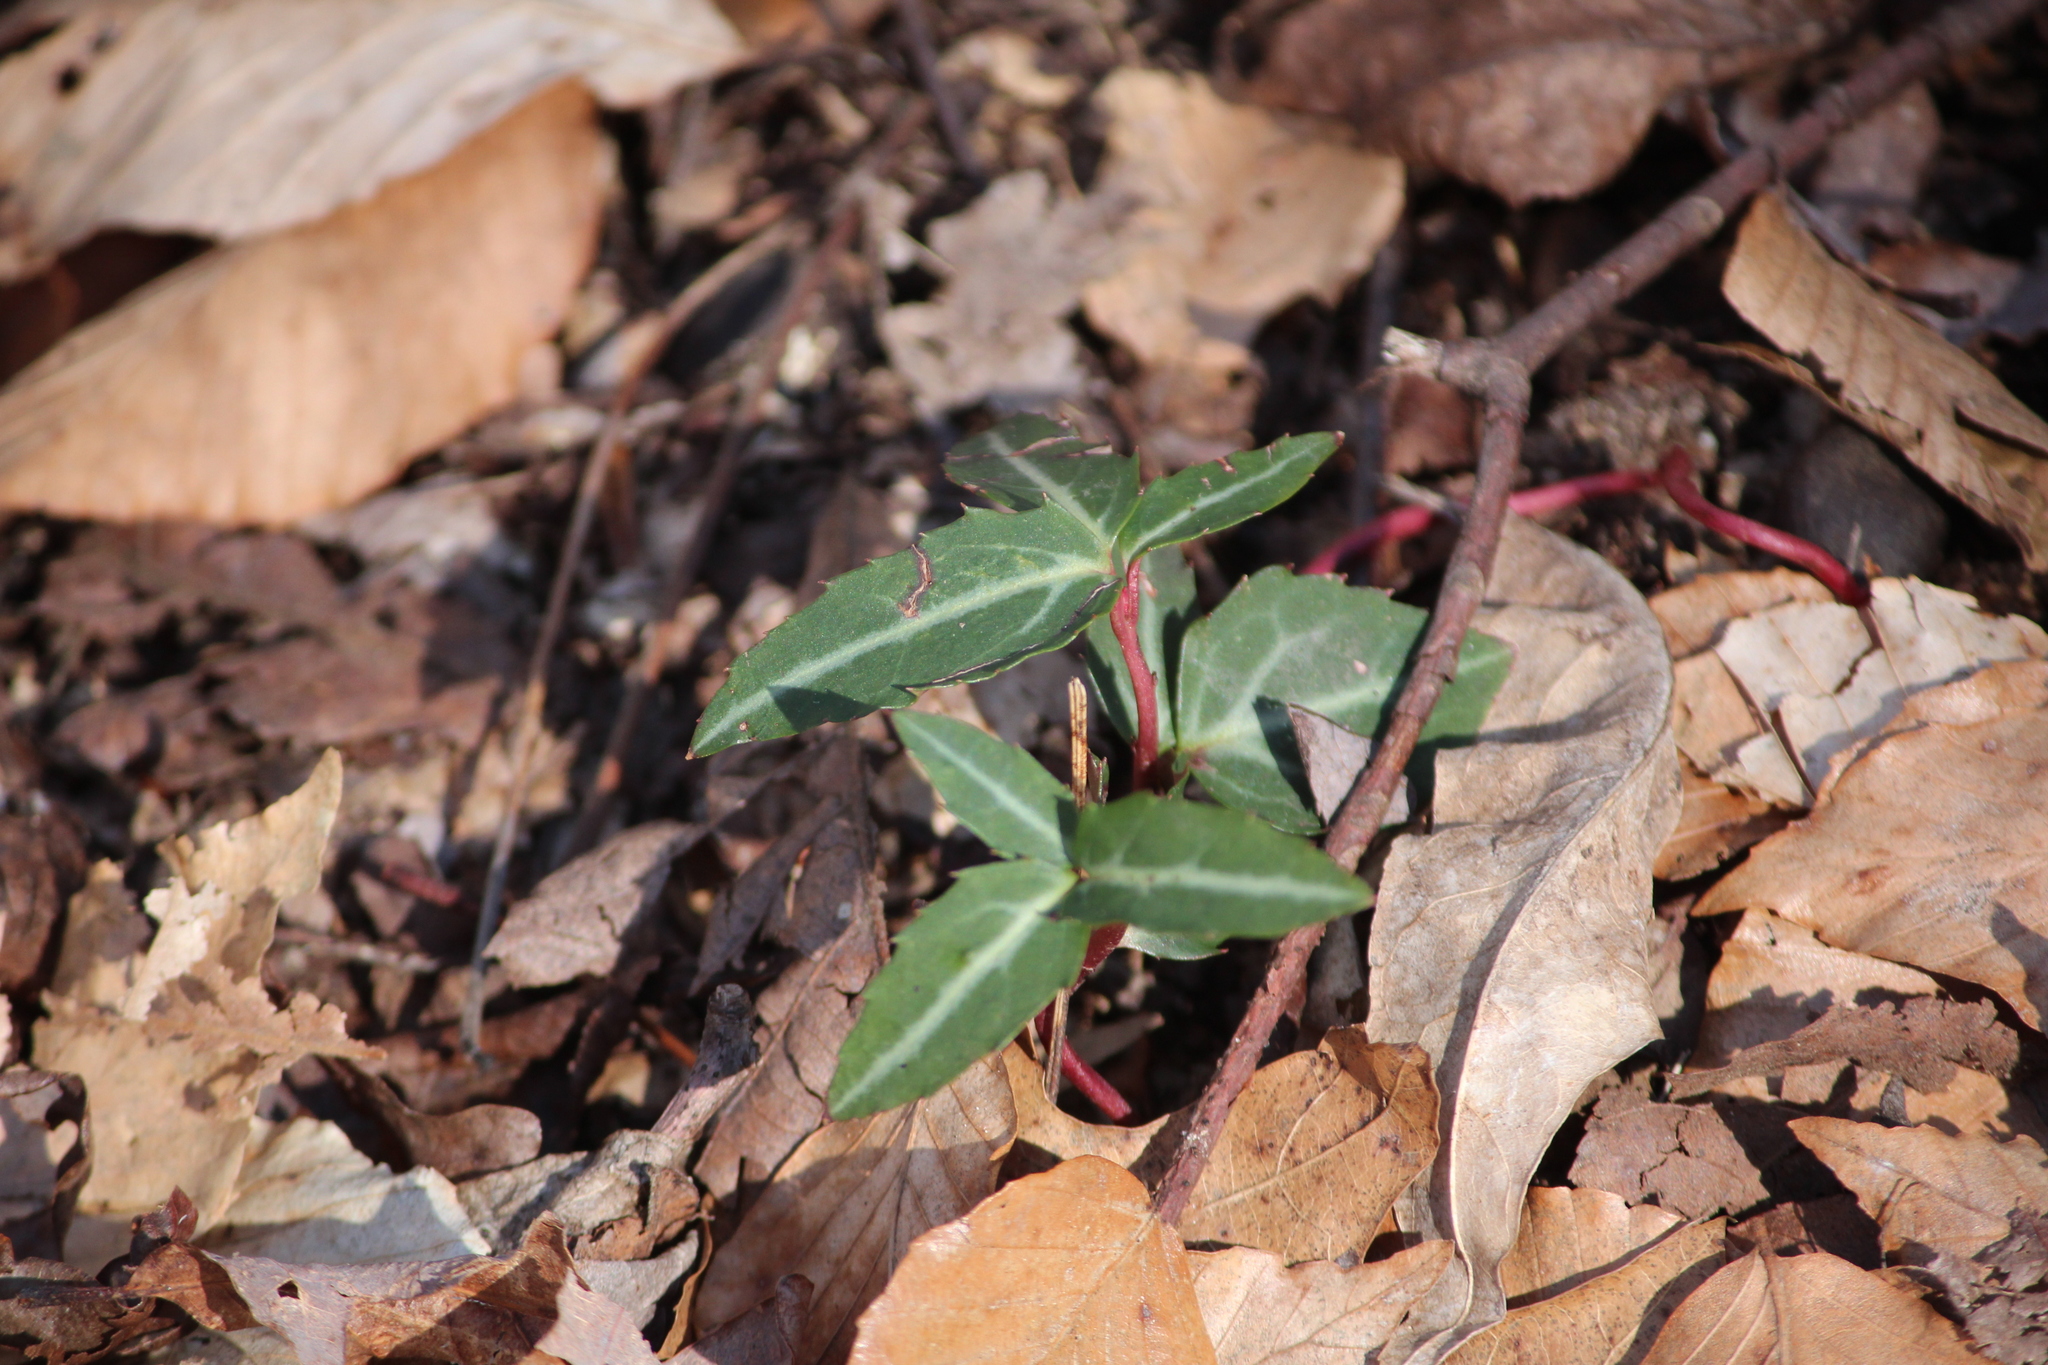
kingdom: Plantae
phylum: Tracheophyta
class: Magnoliopsida
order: Ericales
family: Ericaceae
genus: Chimaphila
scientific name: Chimaphila maculata
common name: Spotted pipsissewa
